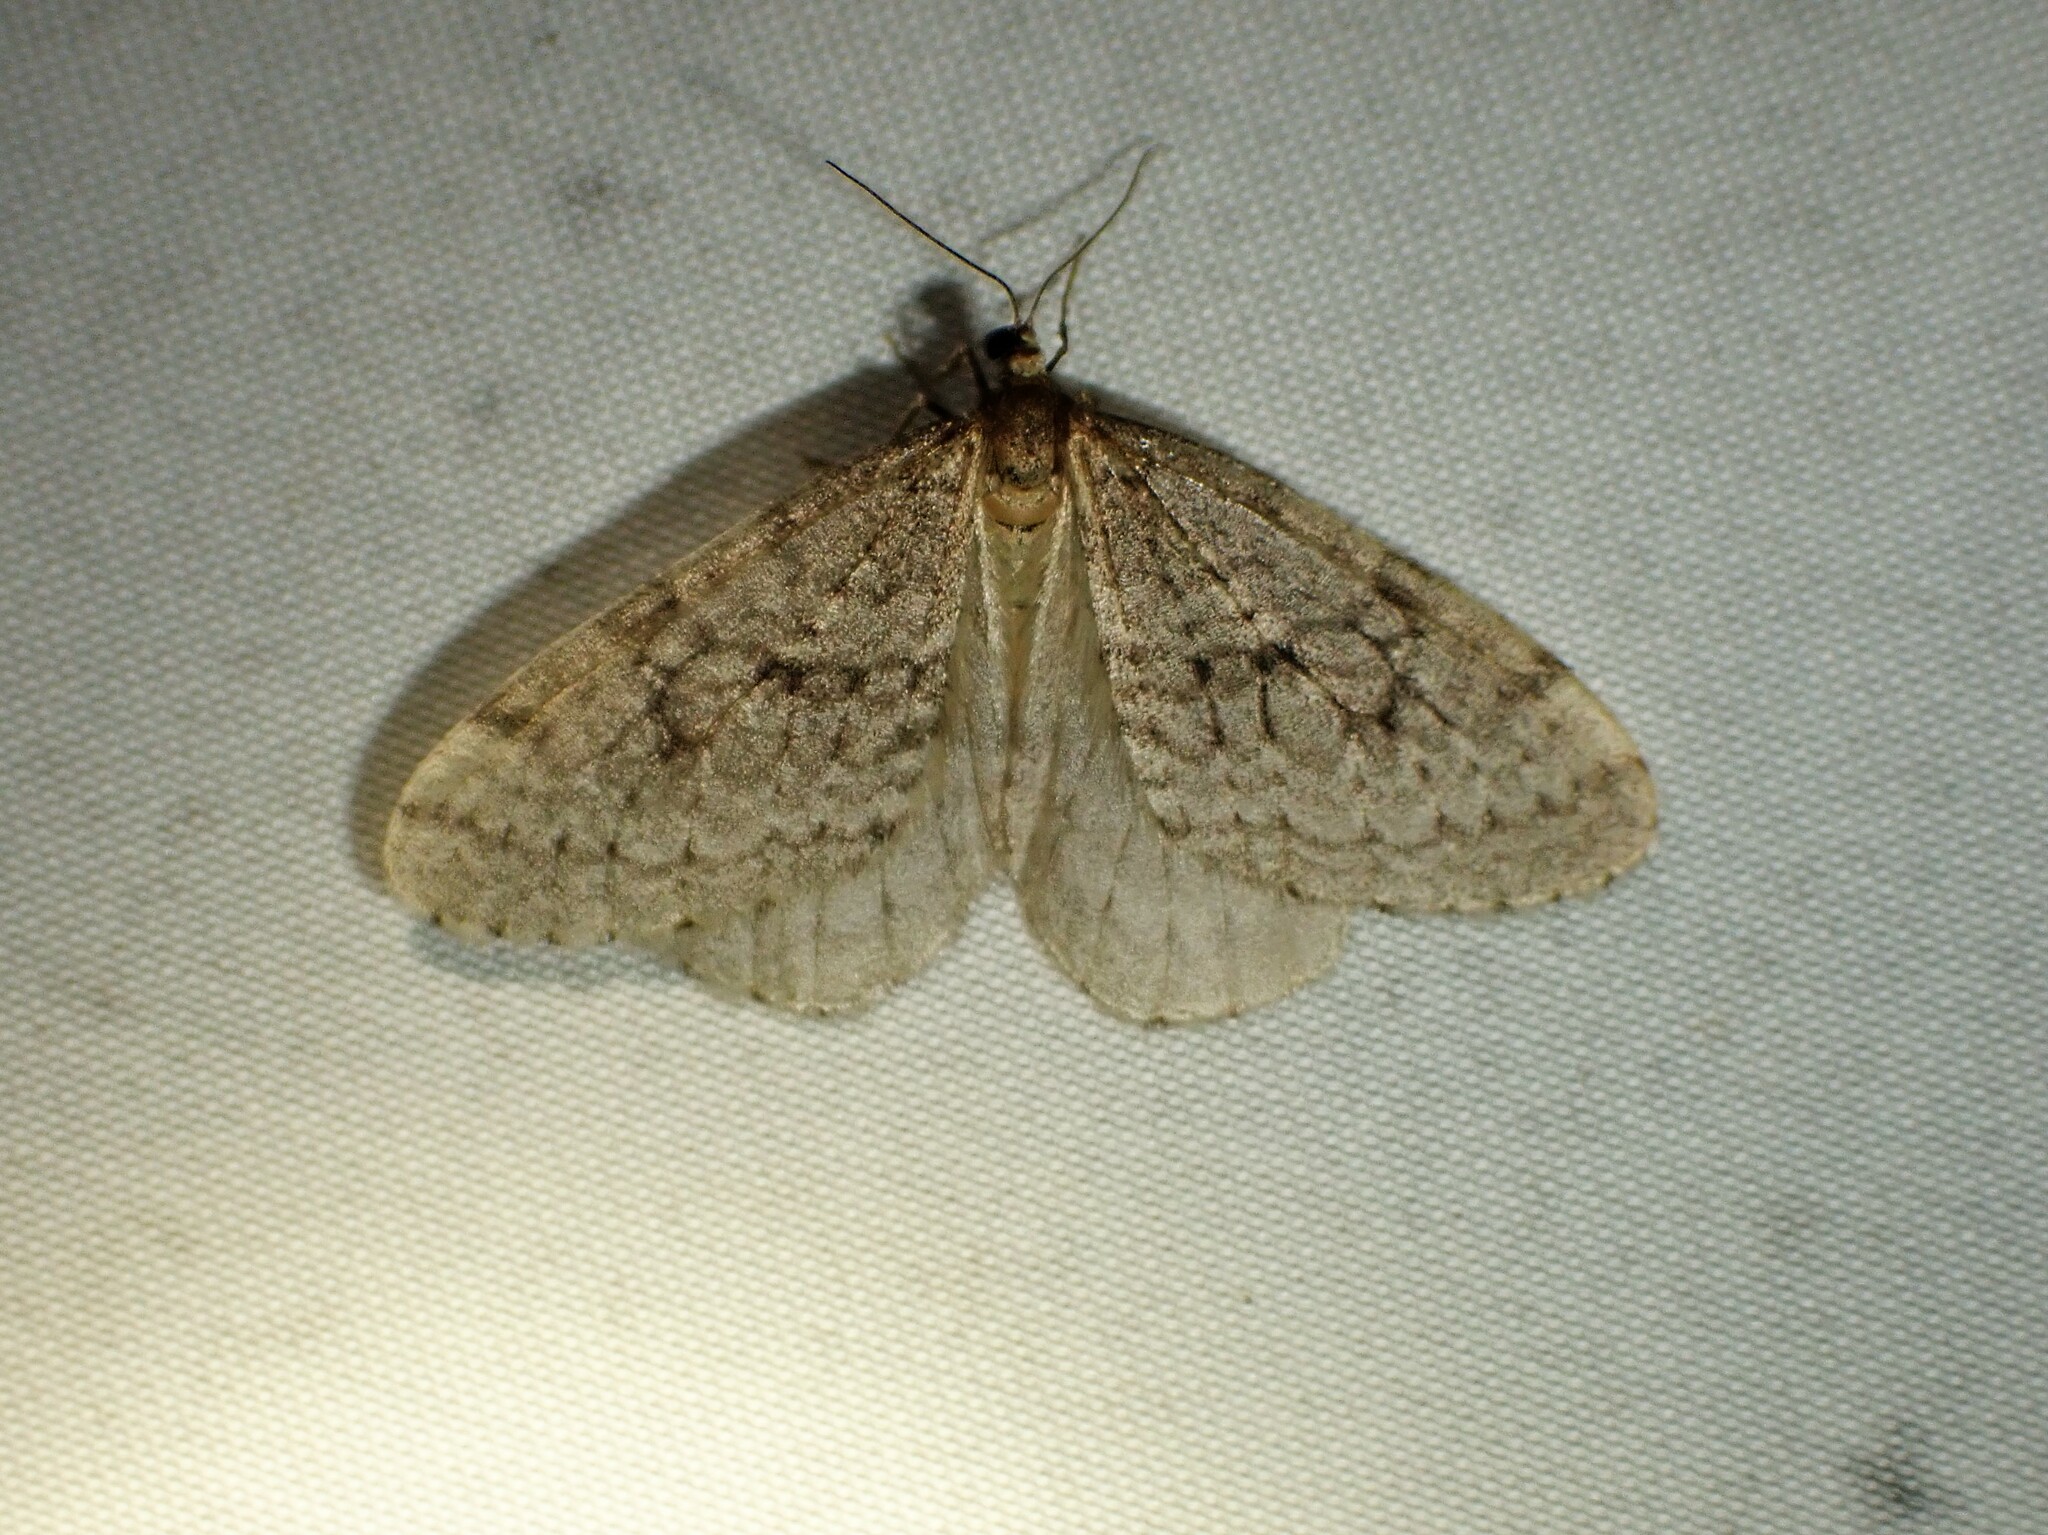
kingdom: Animalia
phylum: Arthropoda
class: Insecta
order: Lepidoptera
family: Geometridae
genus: Operophtera
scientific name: Operophtera bruceata
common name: Bruce spanworm
